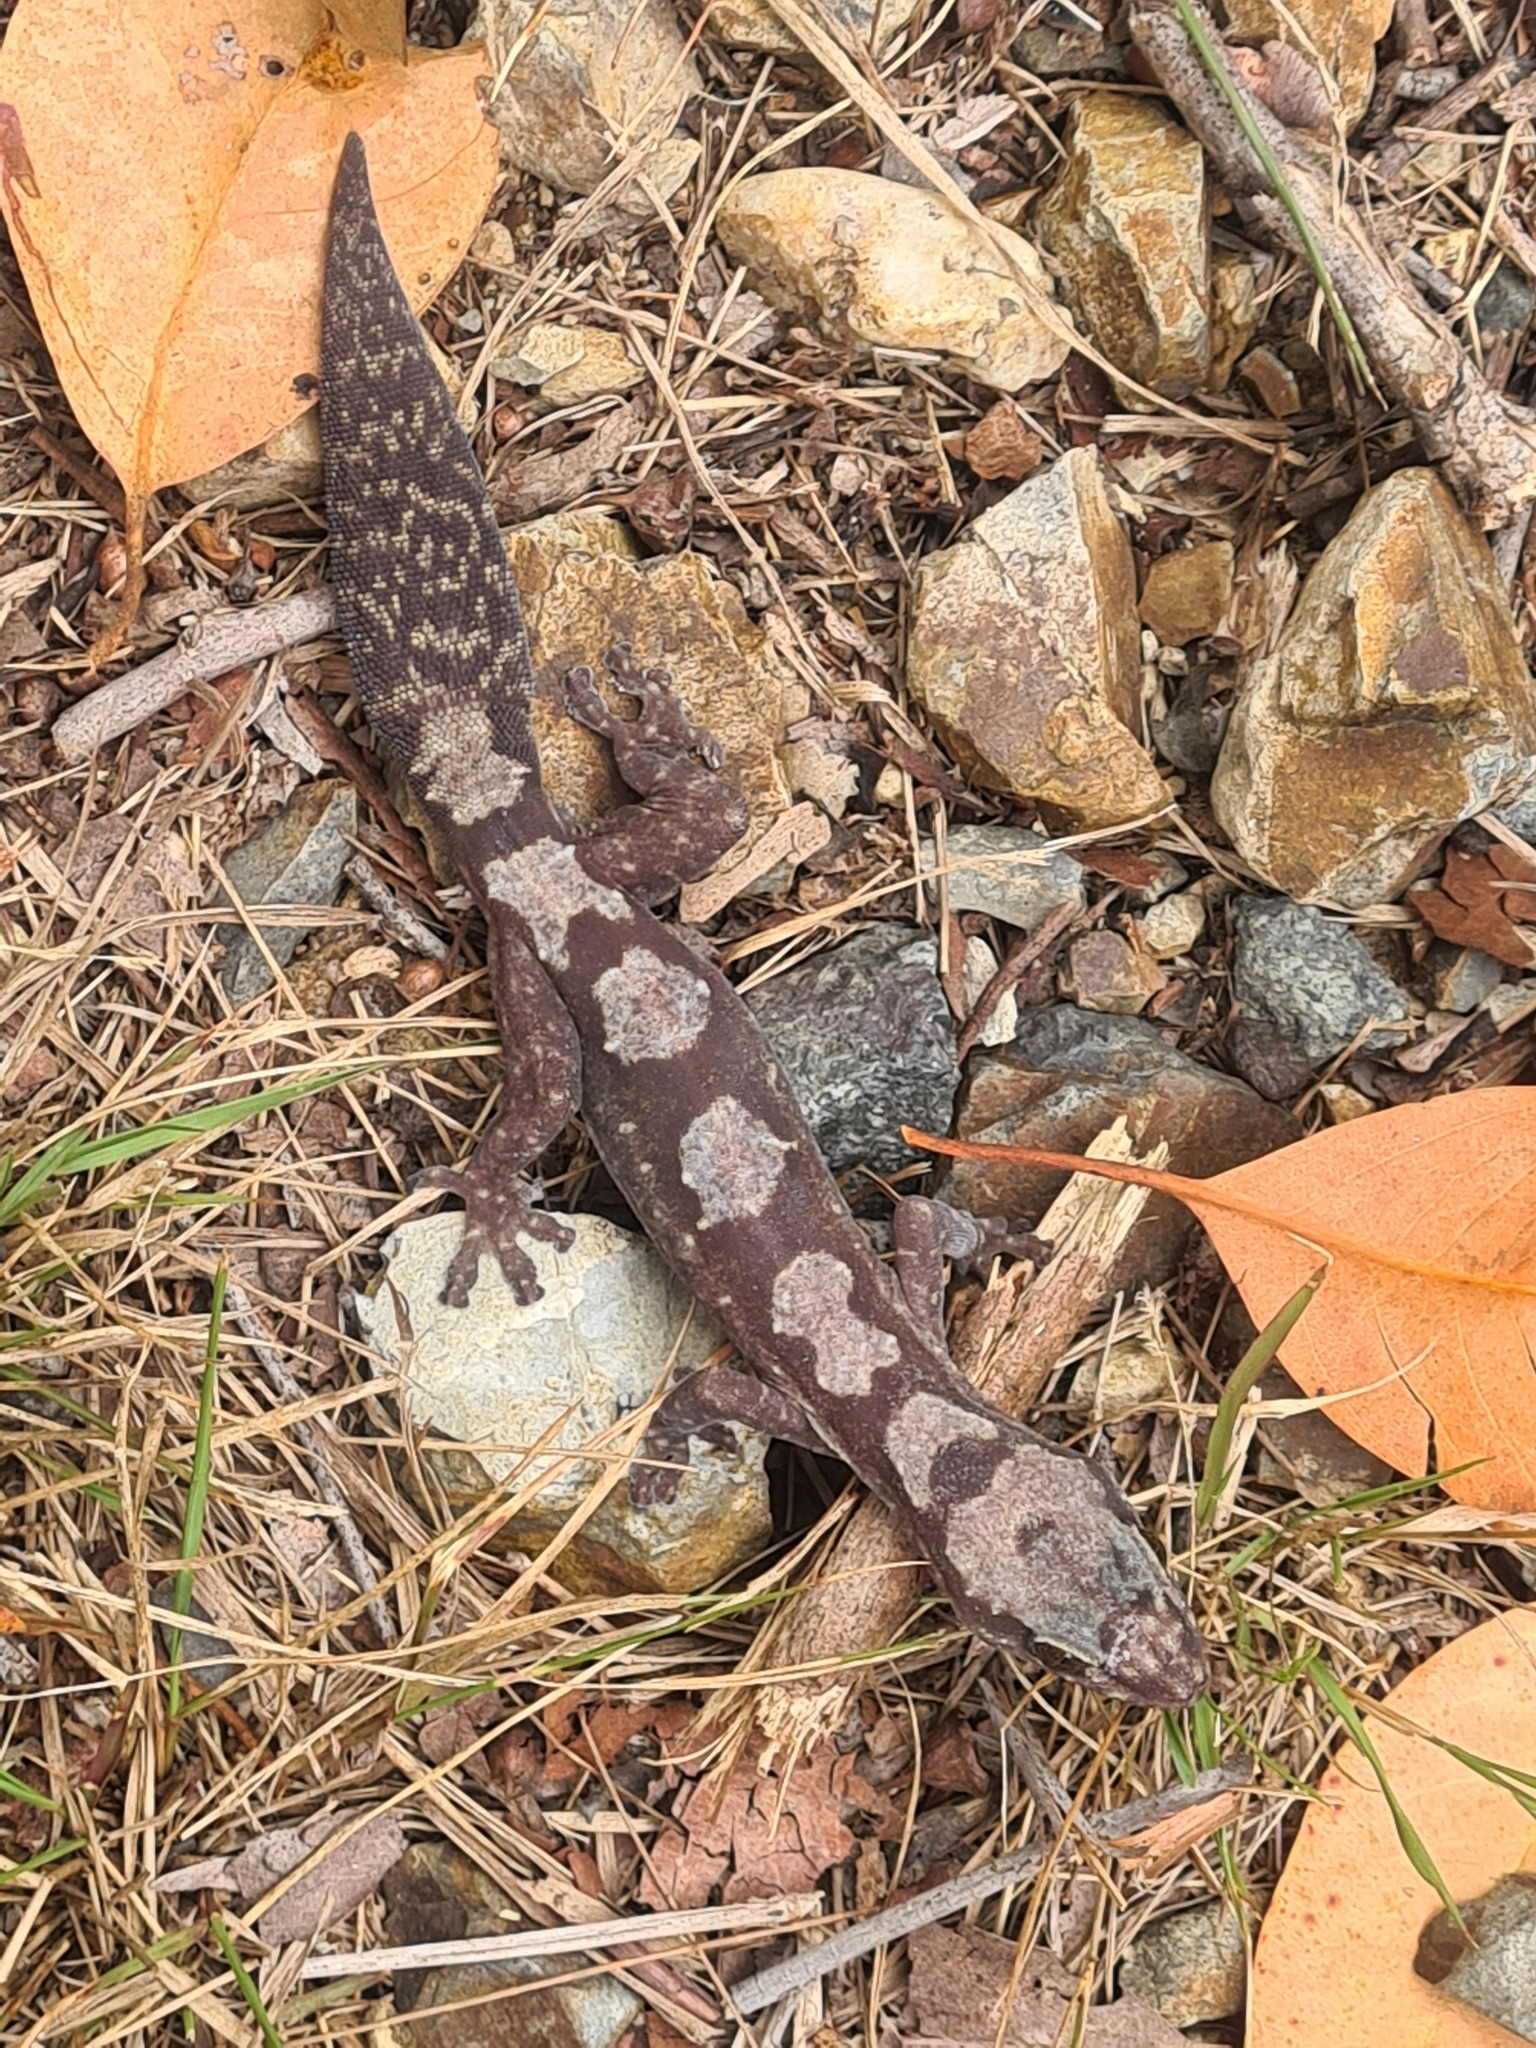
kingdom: Animalia
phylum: Chordata
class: Squamata
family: Diplodactylidae
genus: Nebulifera
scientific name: Nebulifera robusta
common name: Robust gecko
